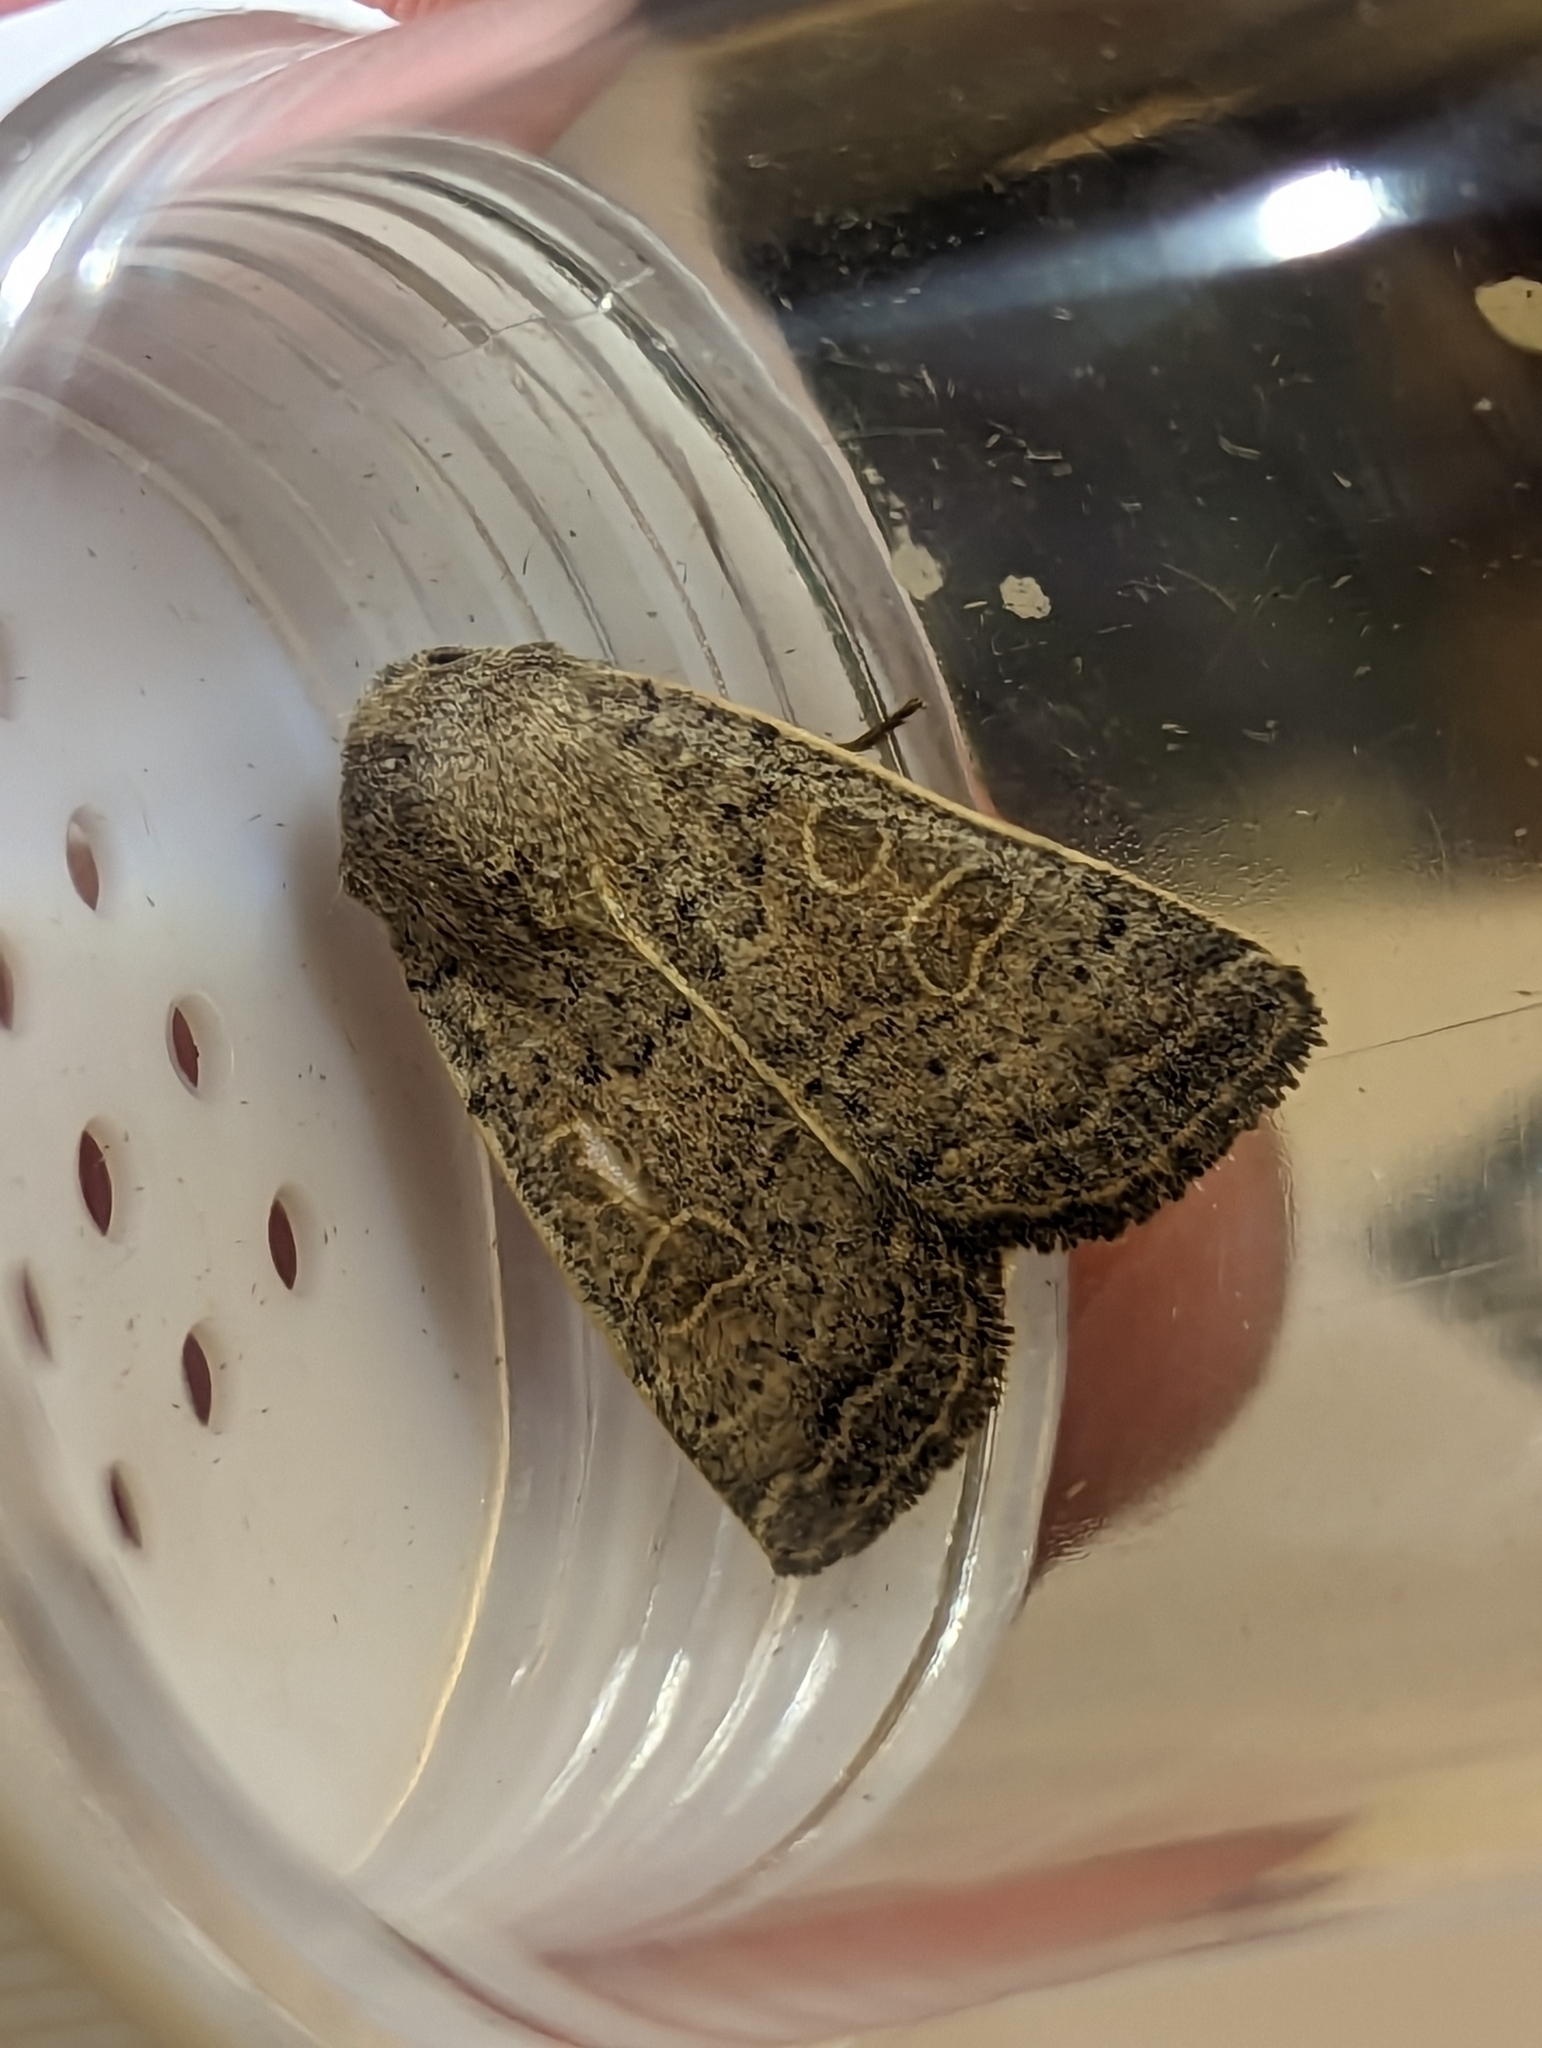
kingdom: Animalia
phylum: Arthropoda
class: Insecta
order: Lepidoptera
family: Noctuidae
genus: Hoplodrina
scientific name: Hoplodrina ambigua
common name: Vine's rustic
